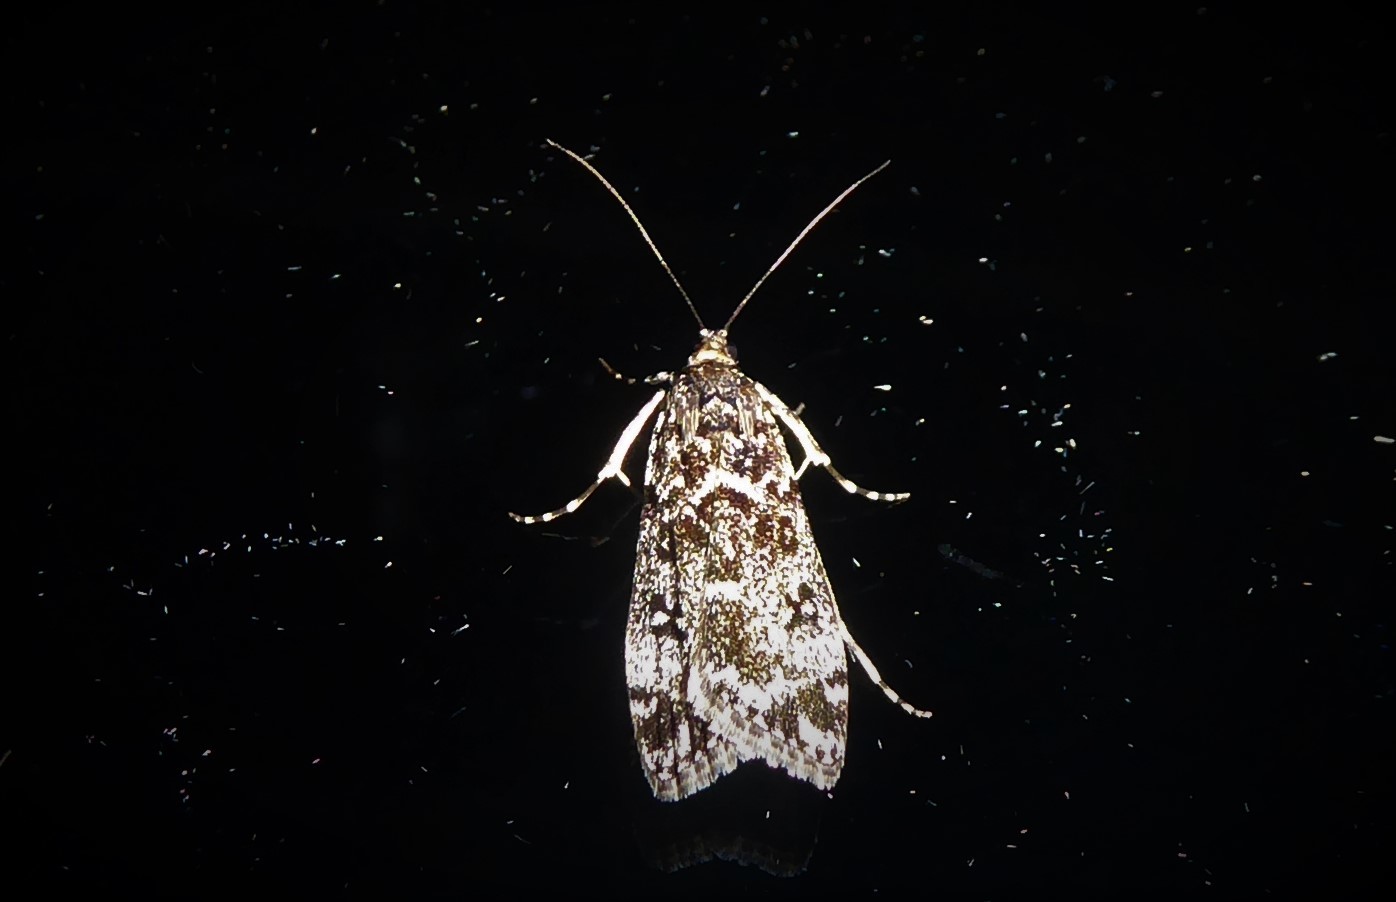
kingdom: Animalia
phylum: Arthropoda
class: Insecta
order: Lepidoptera
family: Crambidae
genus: Eudonia
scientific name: Eudonia philerga
